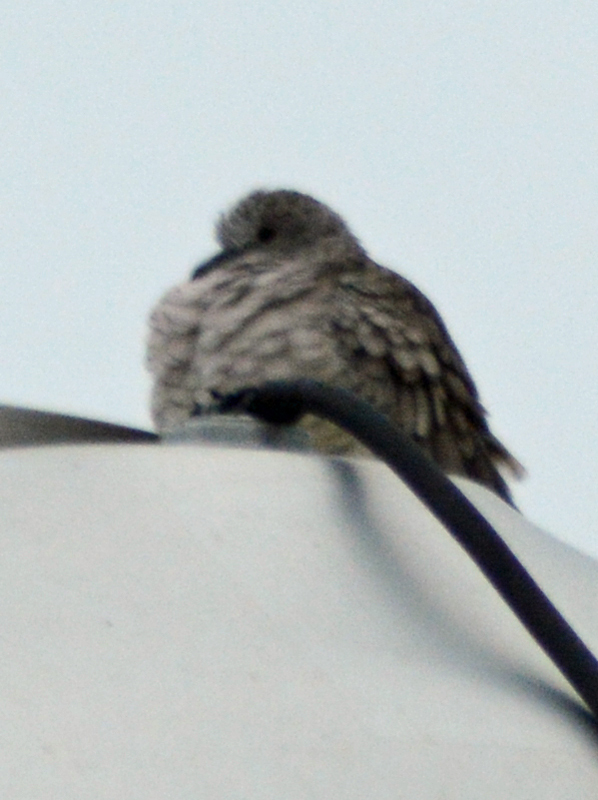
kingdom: Animalia
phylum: Chordata
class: Aves
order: Columbiformes
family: Columbidae
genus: Columbina
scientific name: Columbina inca
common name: Inca dove
